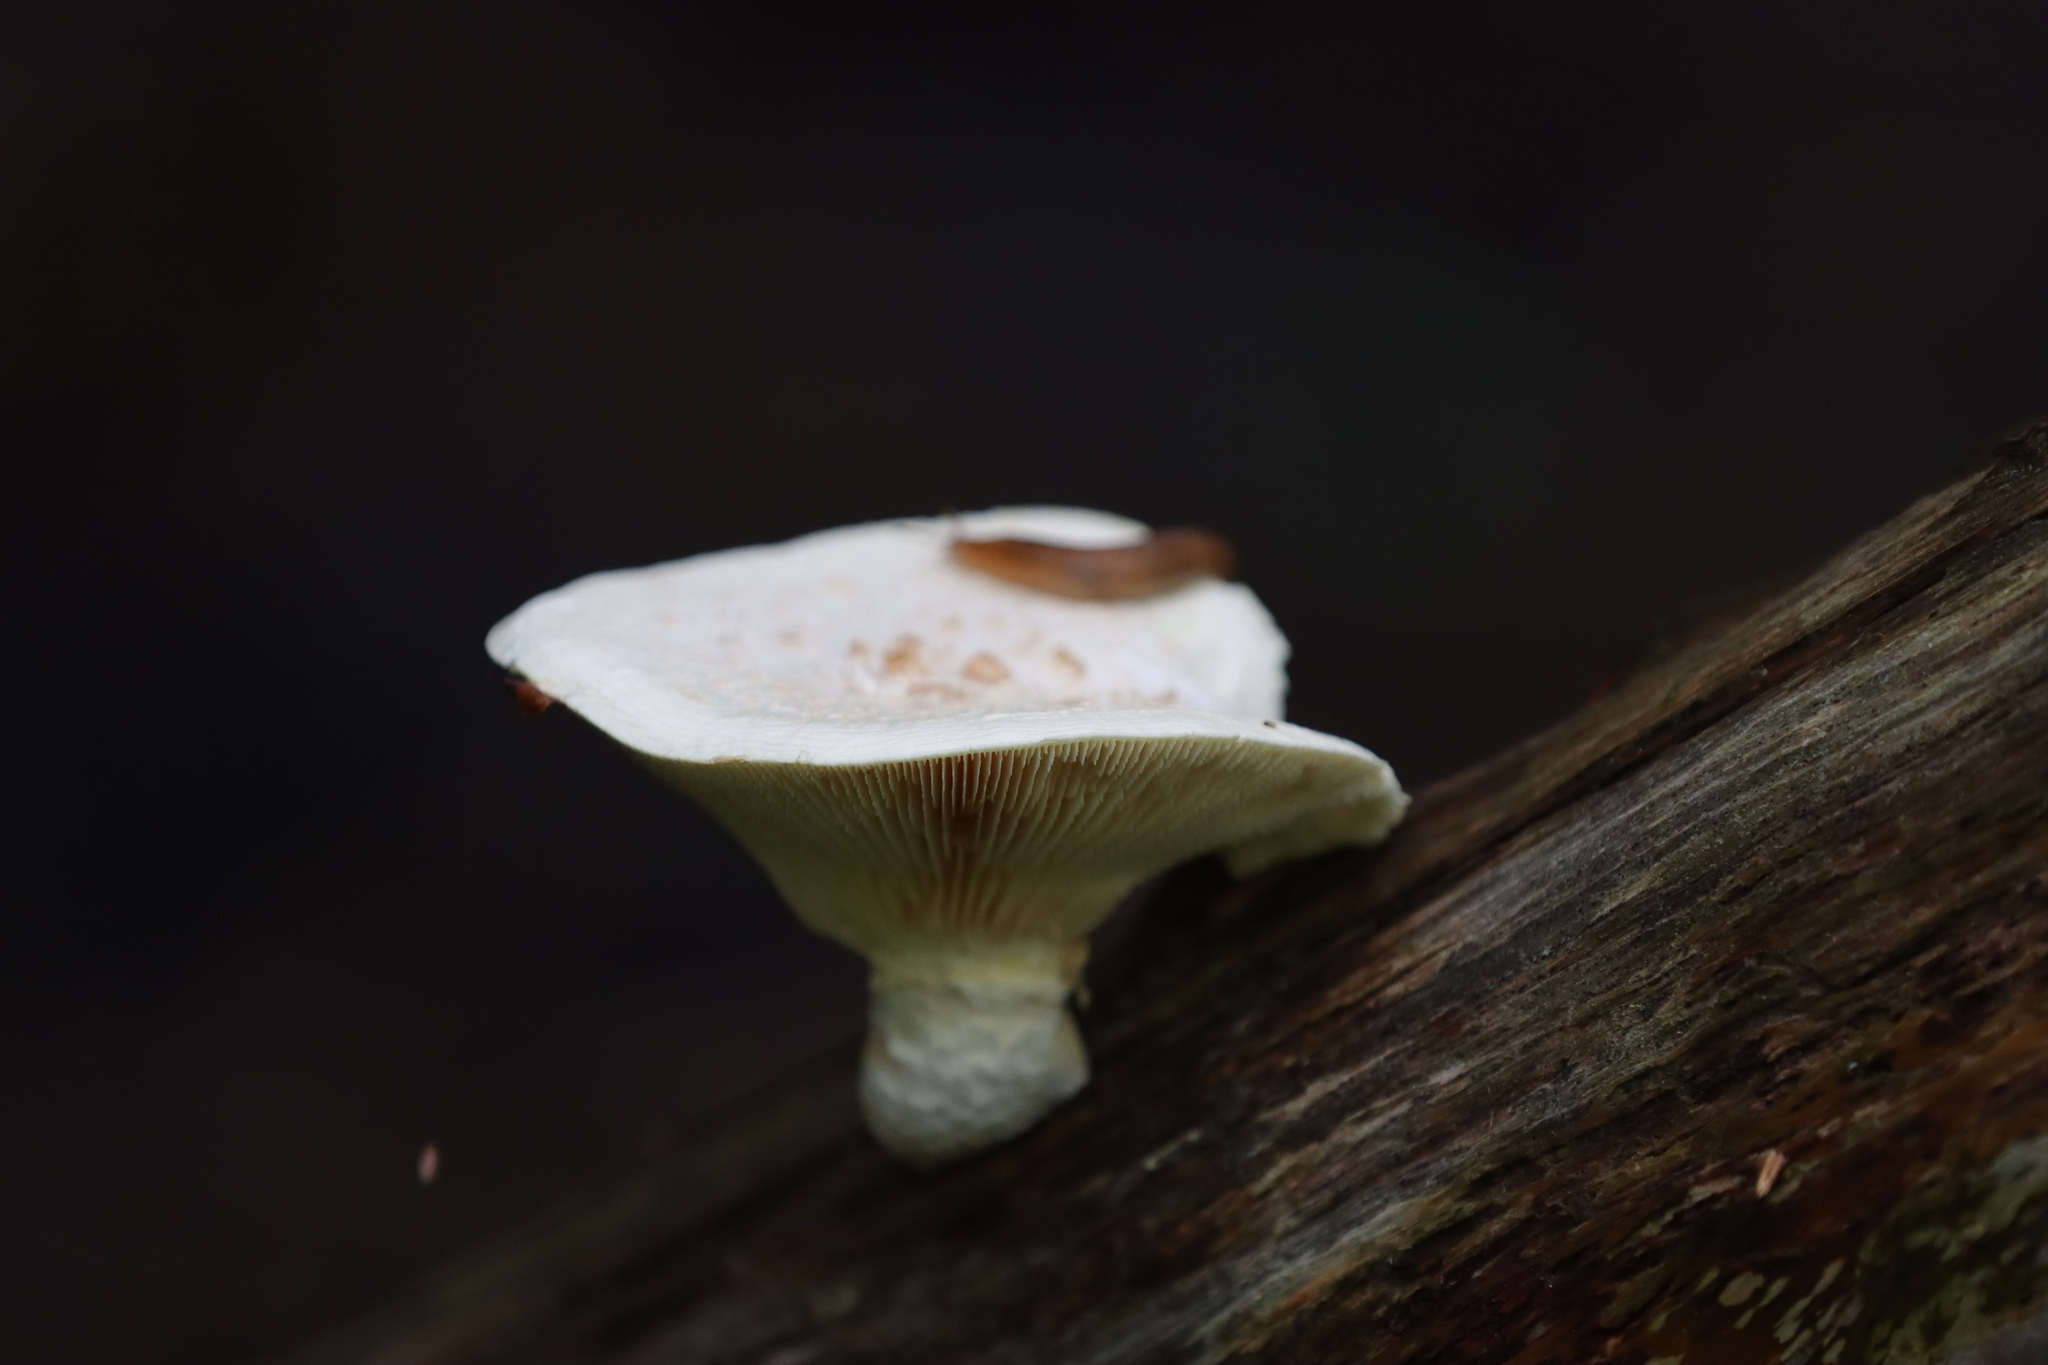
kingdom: Fungi
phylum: Basidiomycota
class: Agaricomycetes
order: Gloeophyllales
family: Gloeophyllaceae
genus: Neolentinus
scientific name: Neolentinus lepideus
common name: Scaly sawgill
